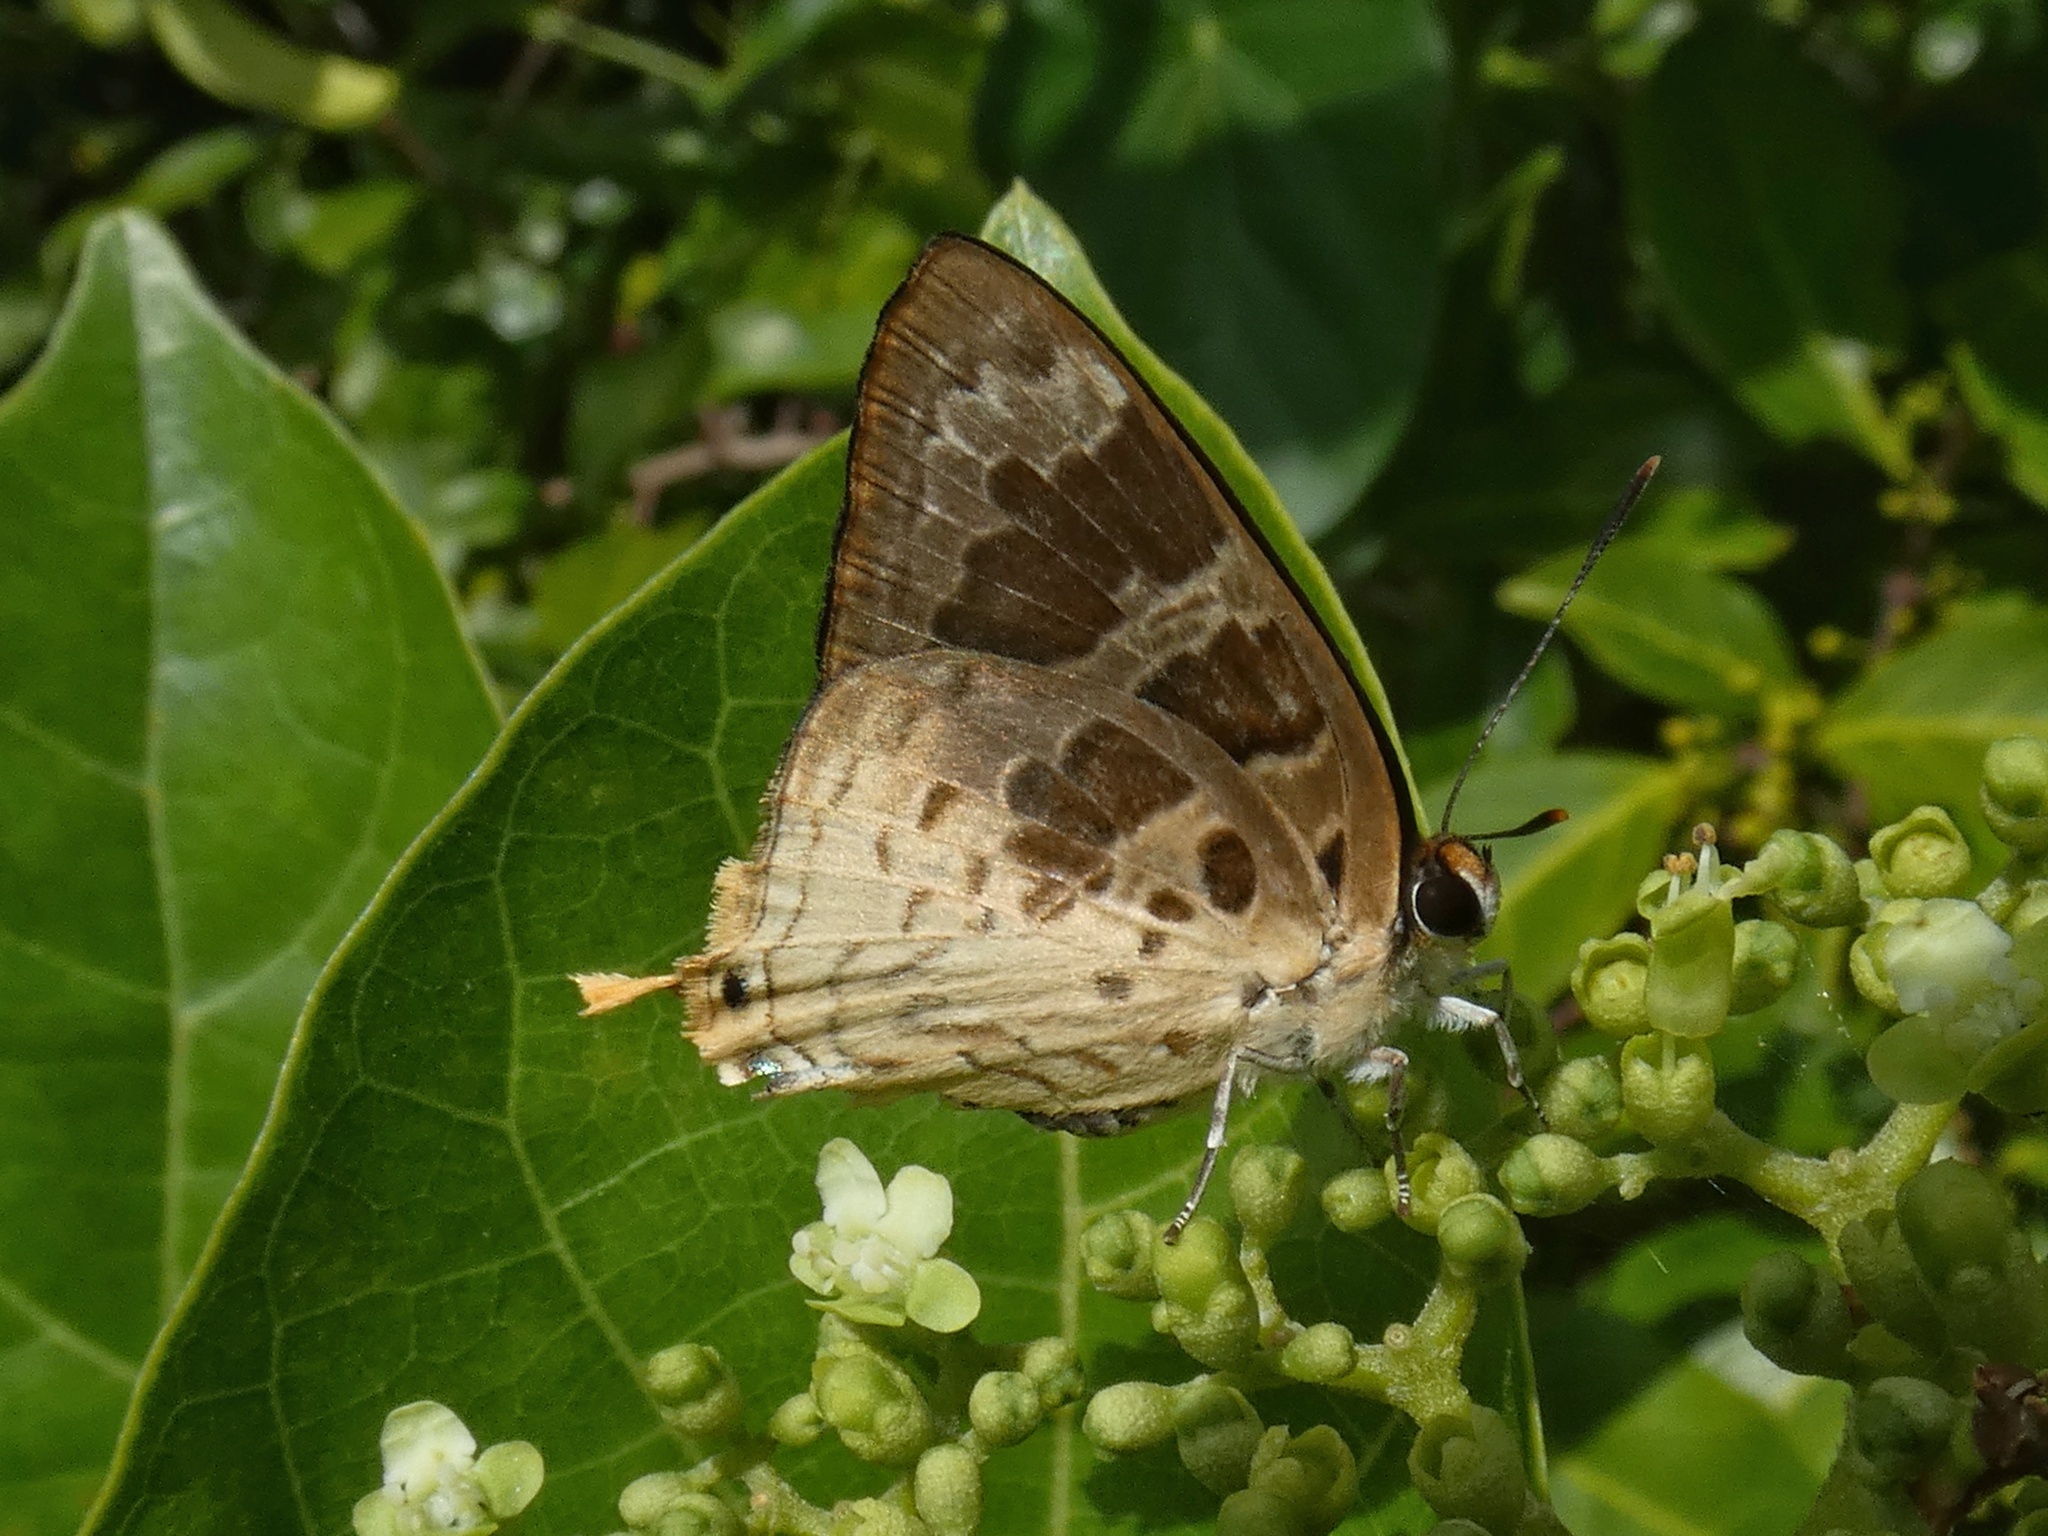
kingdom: Animalia
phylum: Arthropoda
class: Insecta
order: Lepidoptera
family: Lycaenidae
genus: Bindahara
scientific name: Bindahara phocides
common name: Sword-tailed flash
